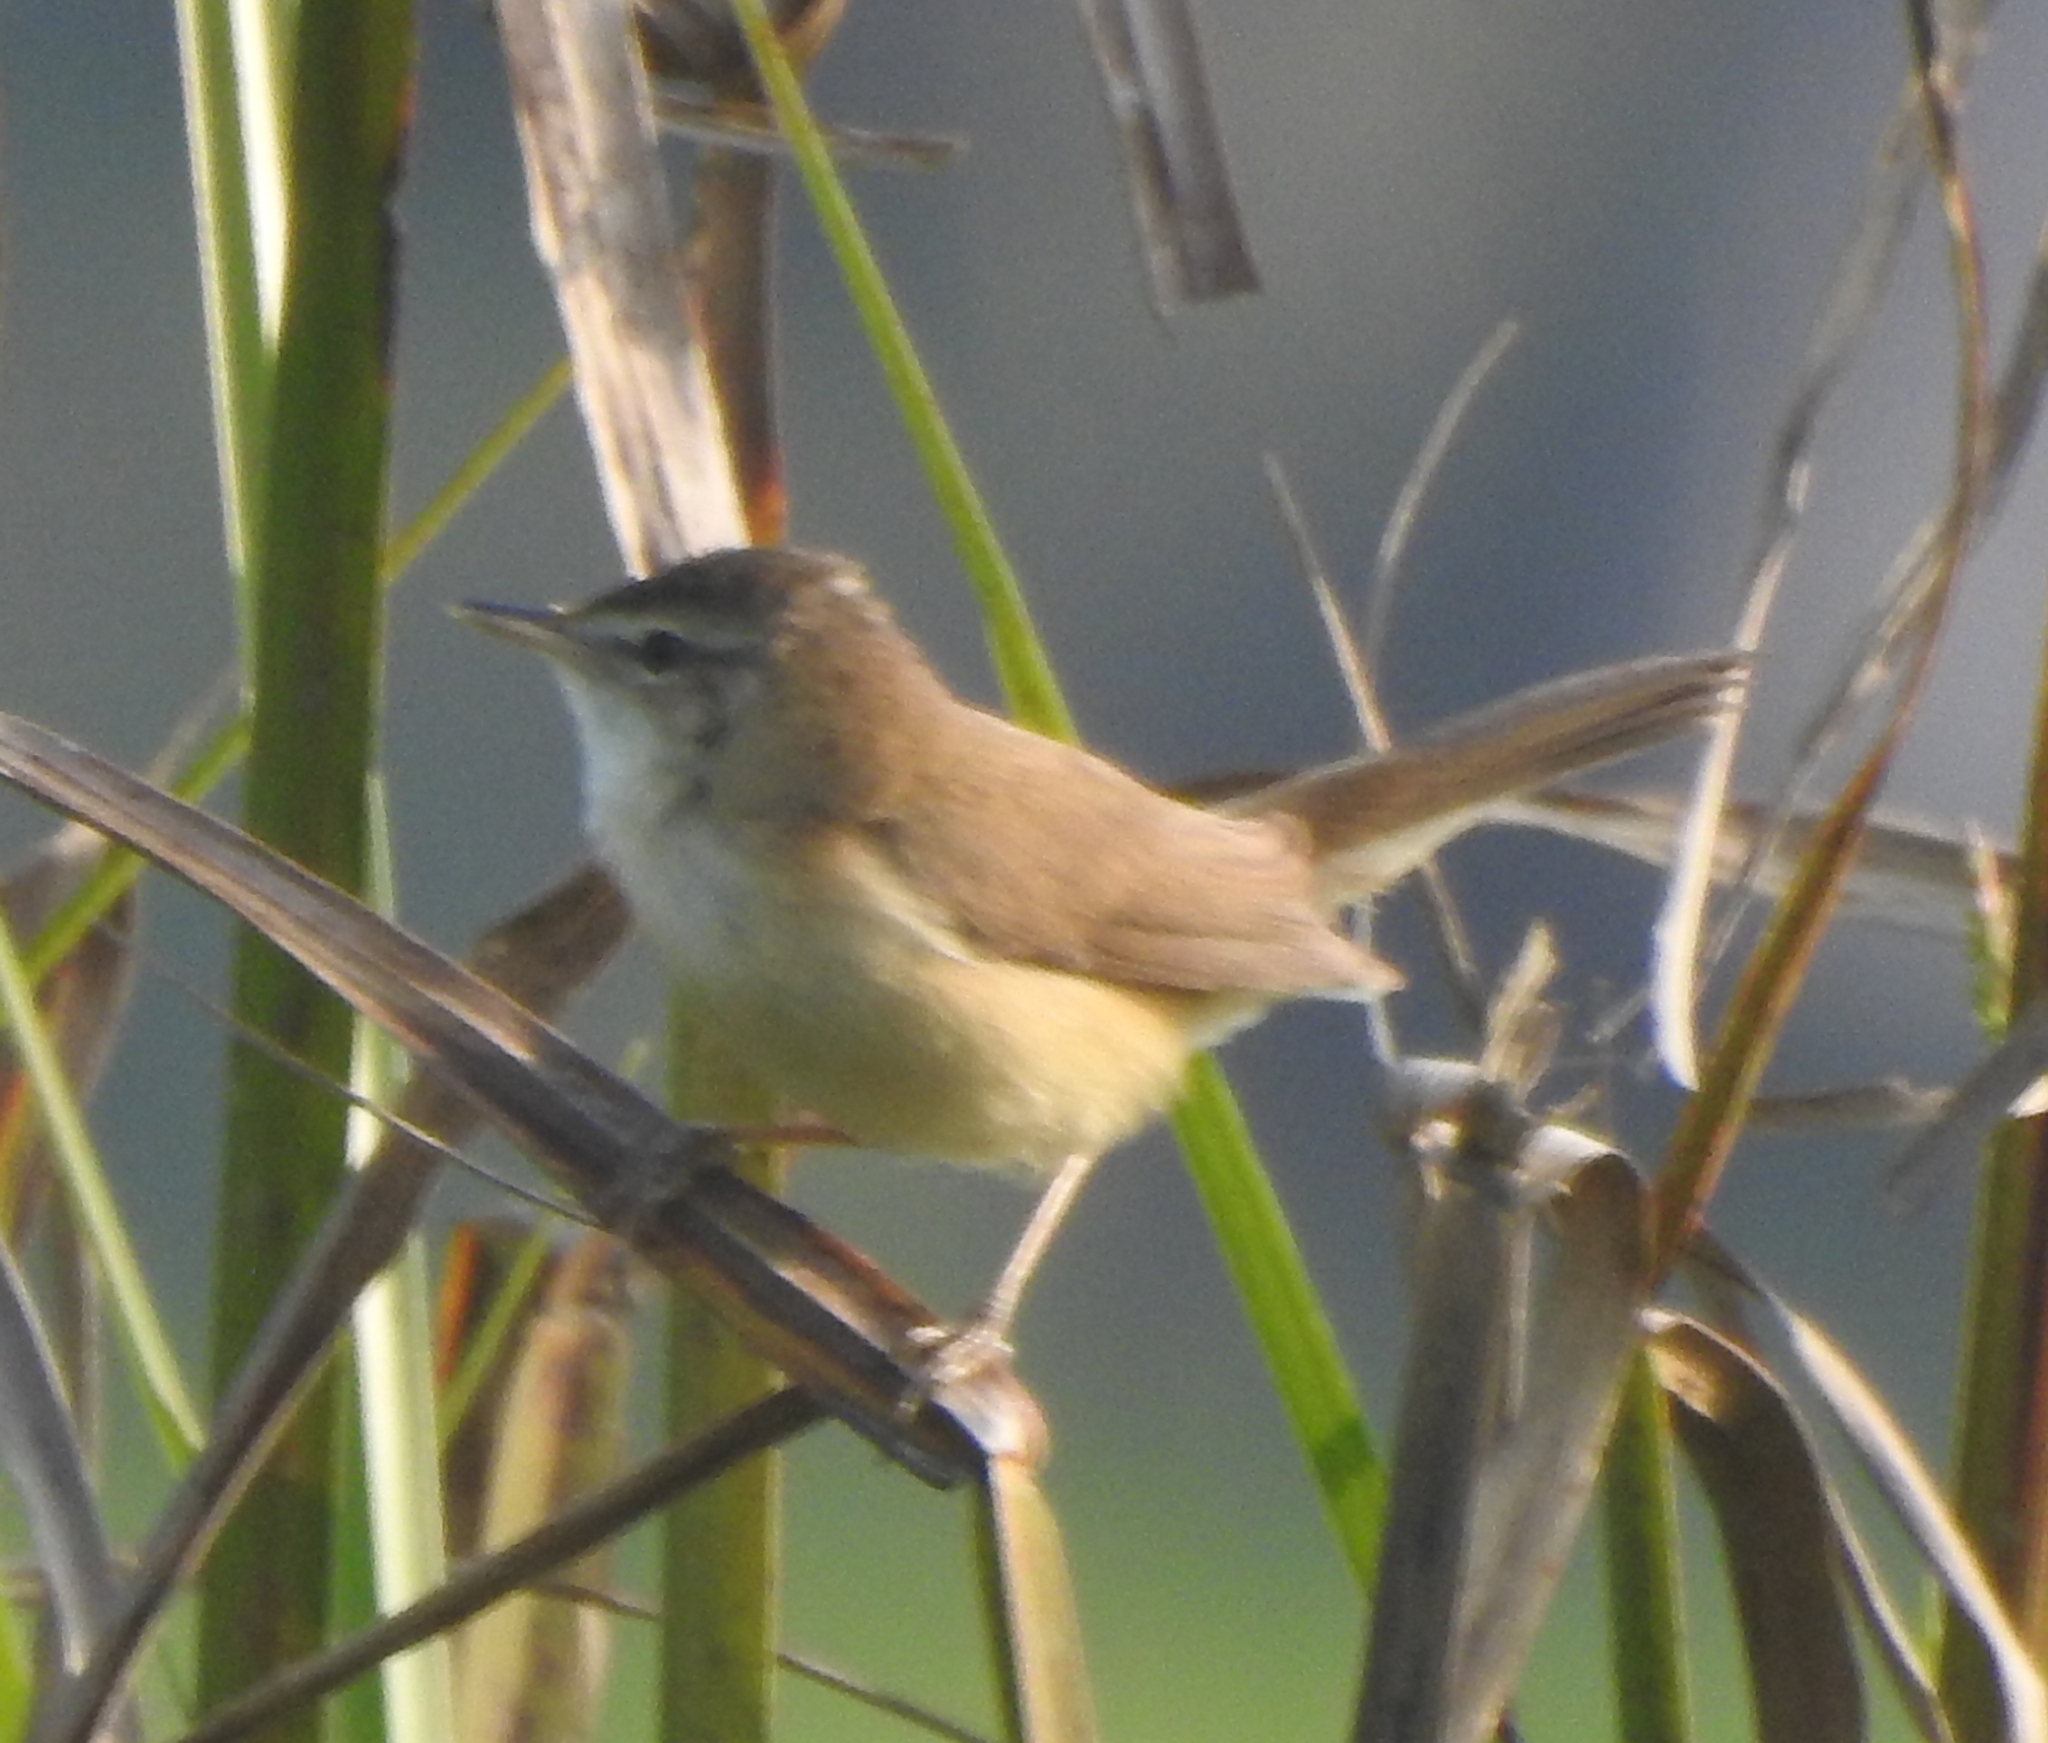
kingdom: Animalia
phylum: Chordata
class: Aves
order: Passeriformes
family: Acrocephalidae
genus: Acrocephalus
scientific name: Acrocephalus agricola
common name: Paddyfield warbler
